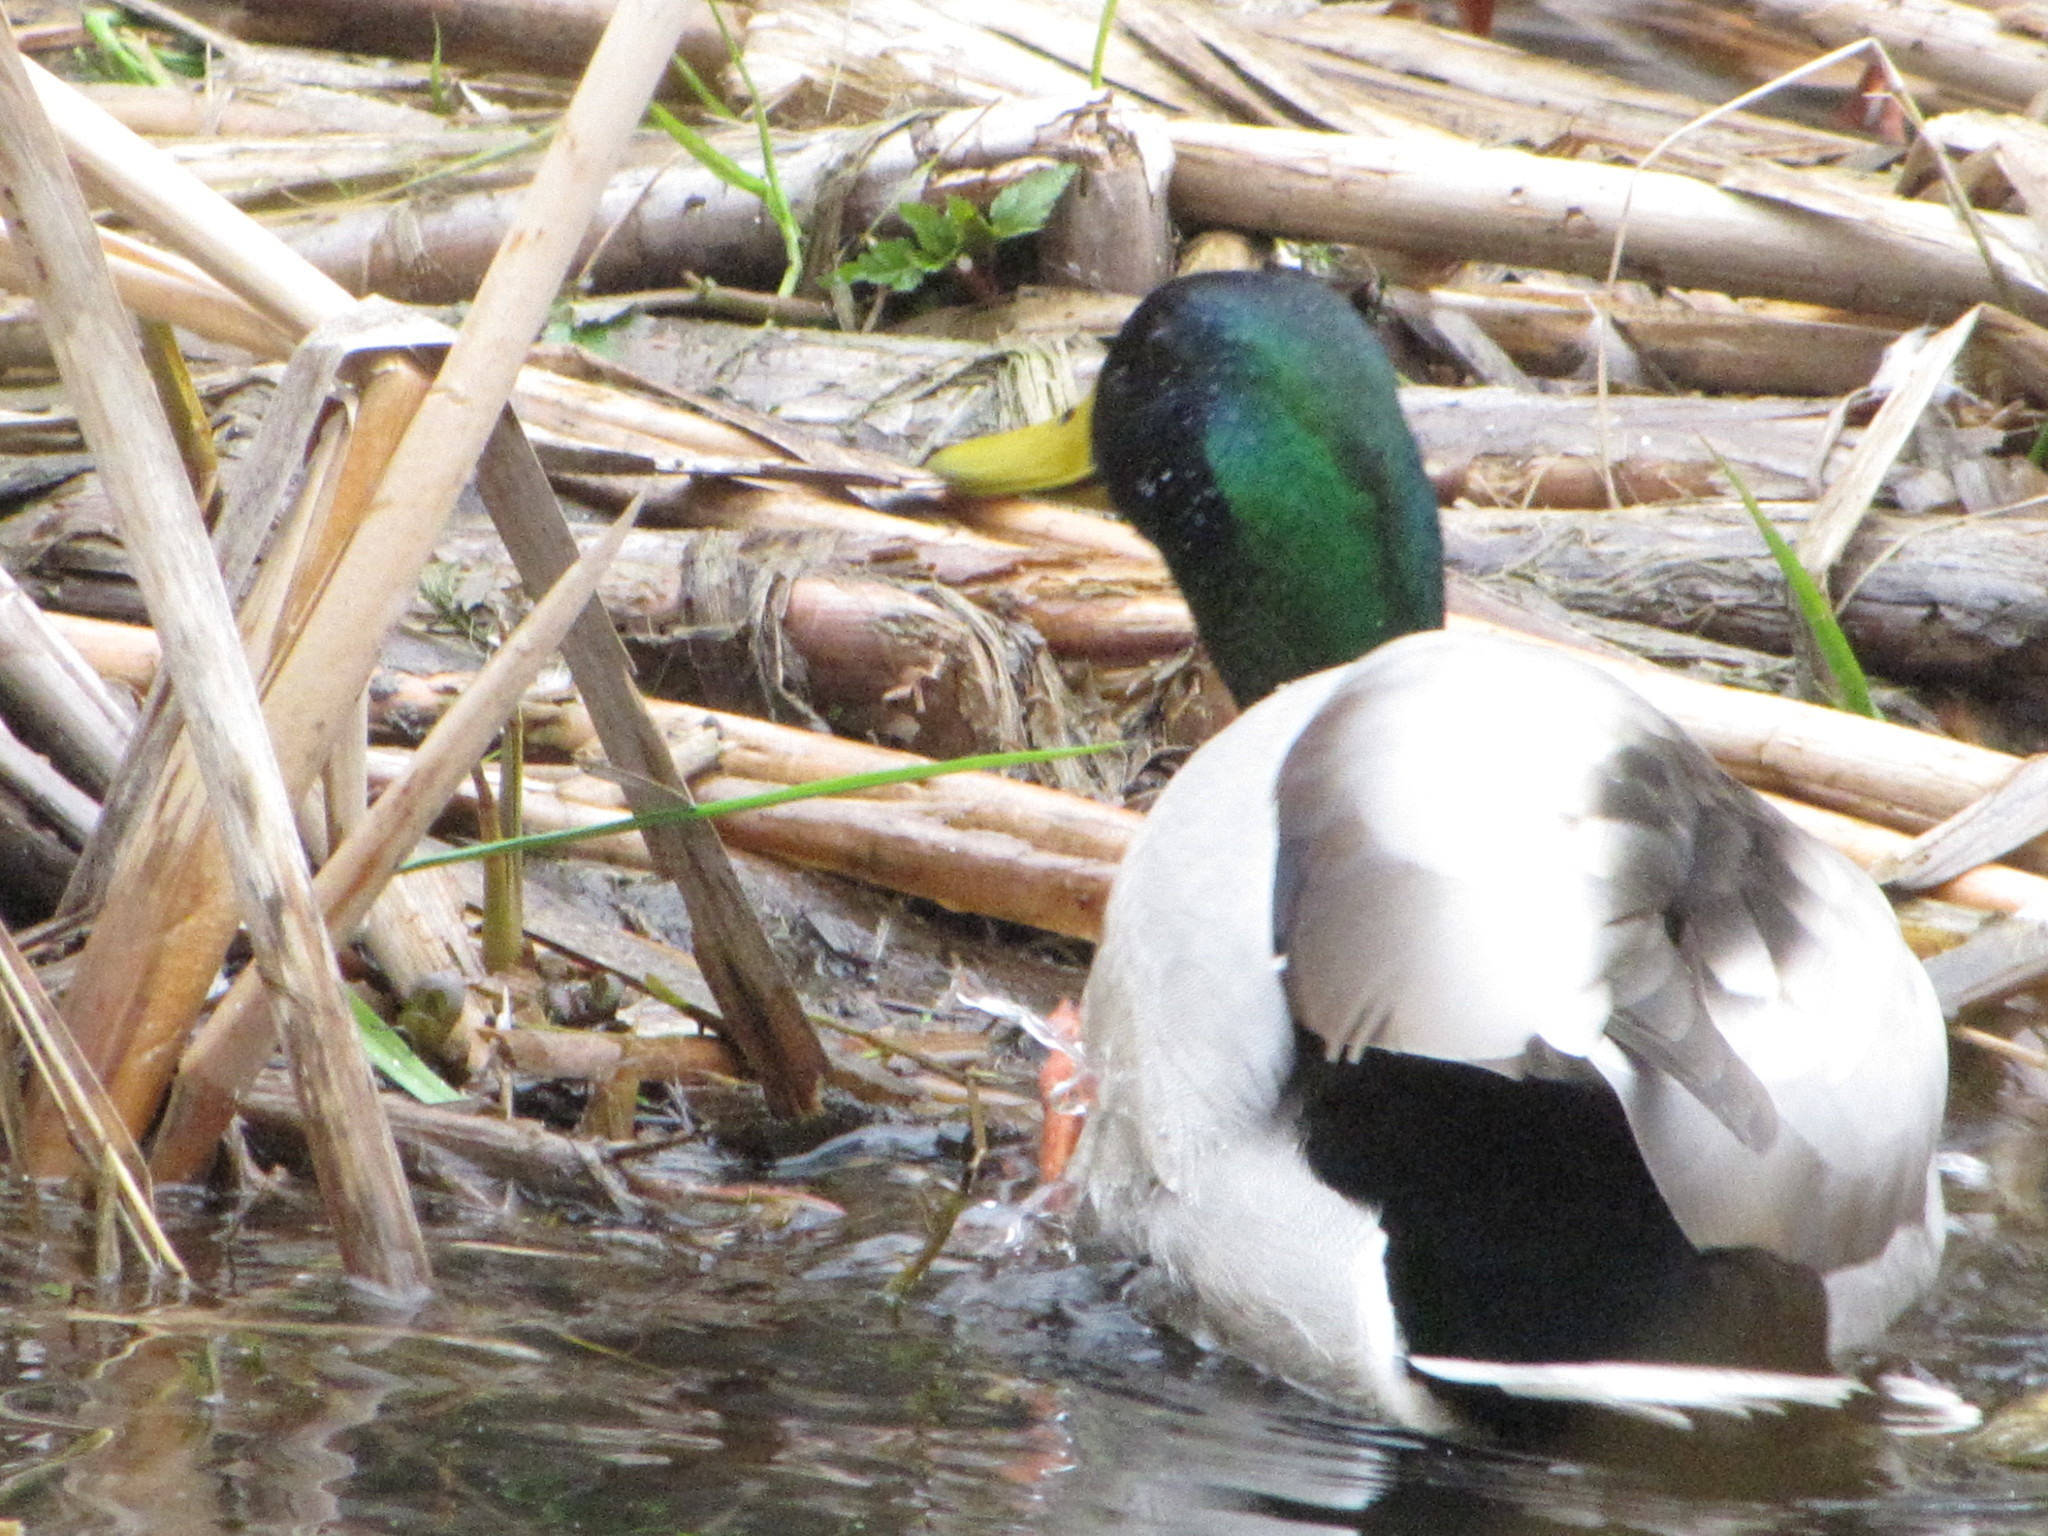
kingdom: Animalia
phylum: Chordata
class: Aves
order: Anseriformes
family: Anatidae
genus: Anas
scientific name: Anas platyrhynchos
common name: Mallard
